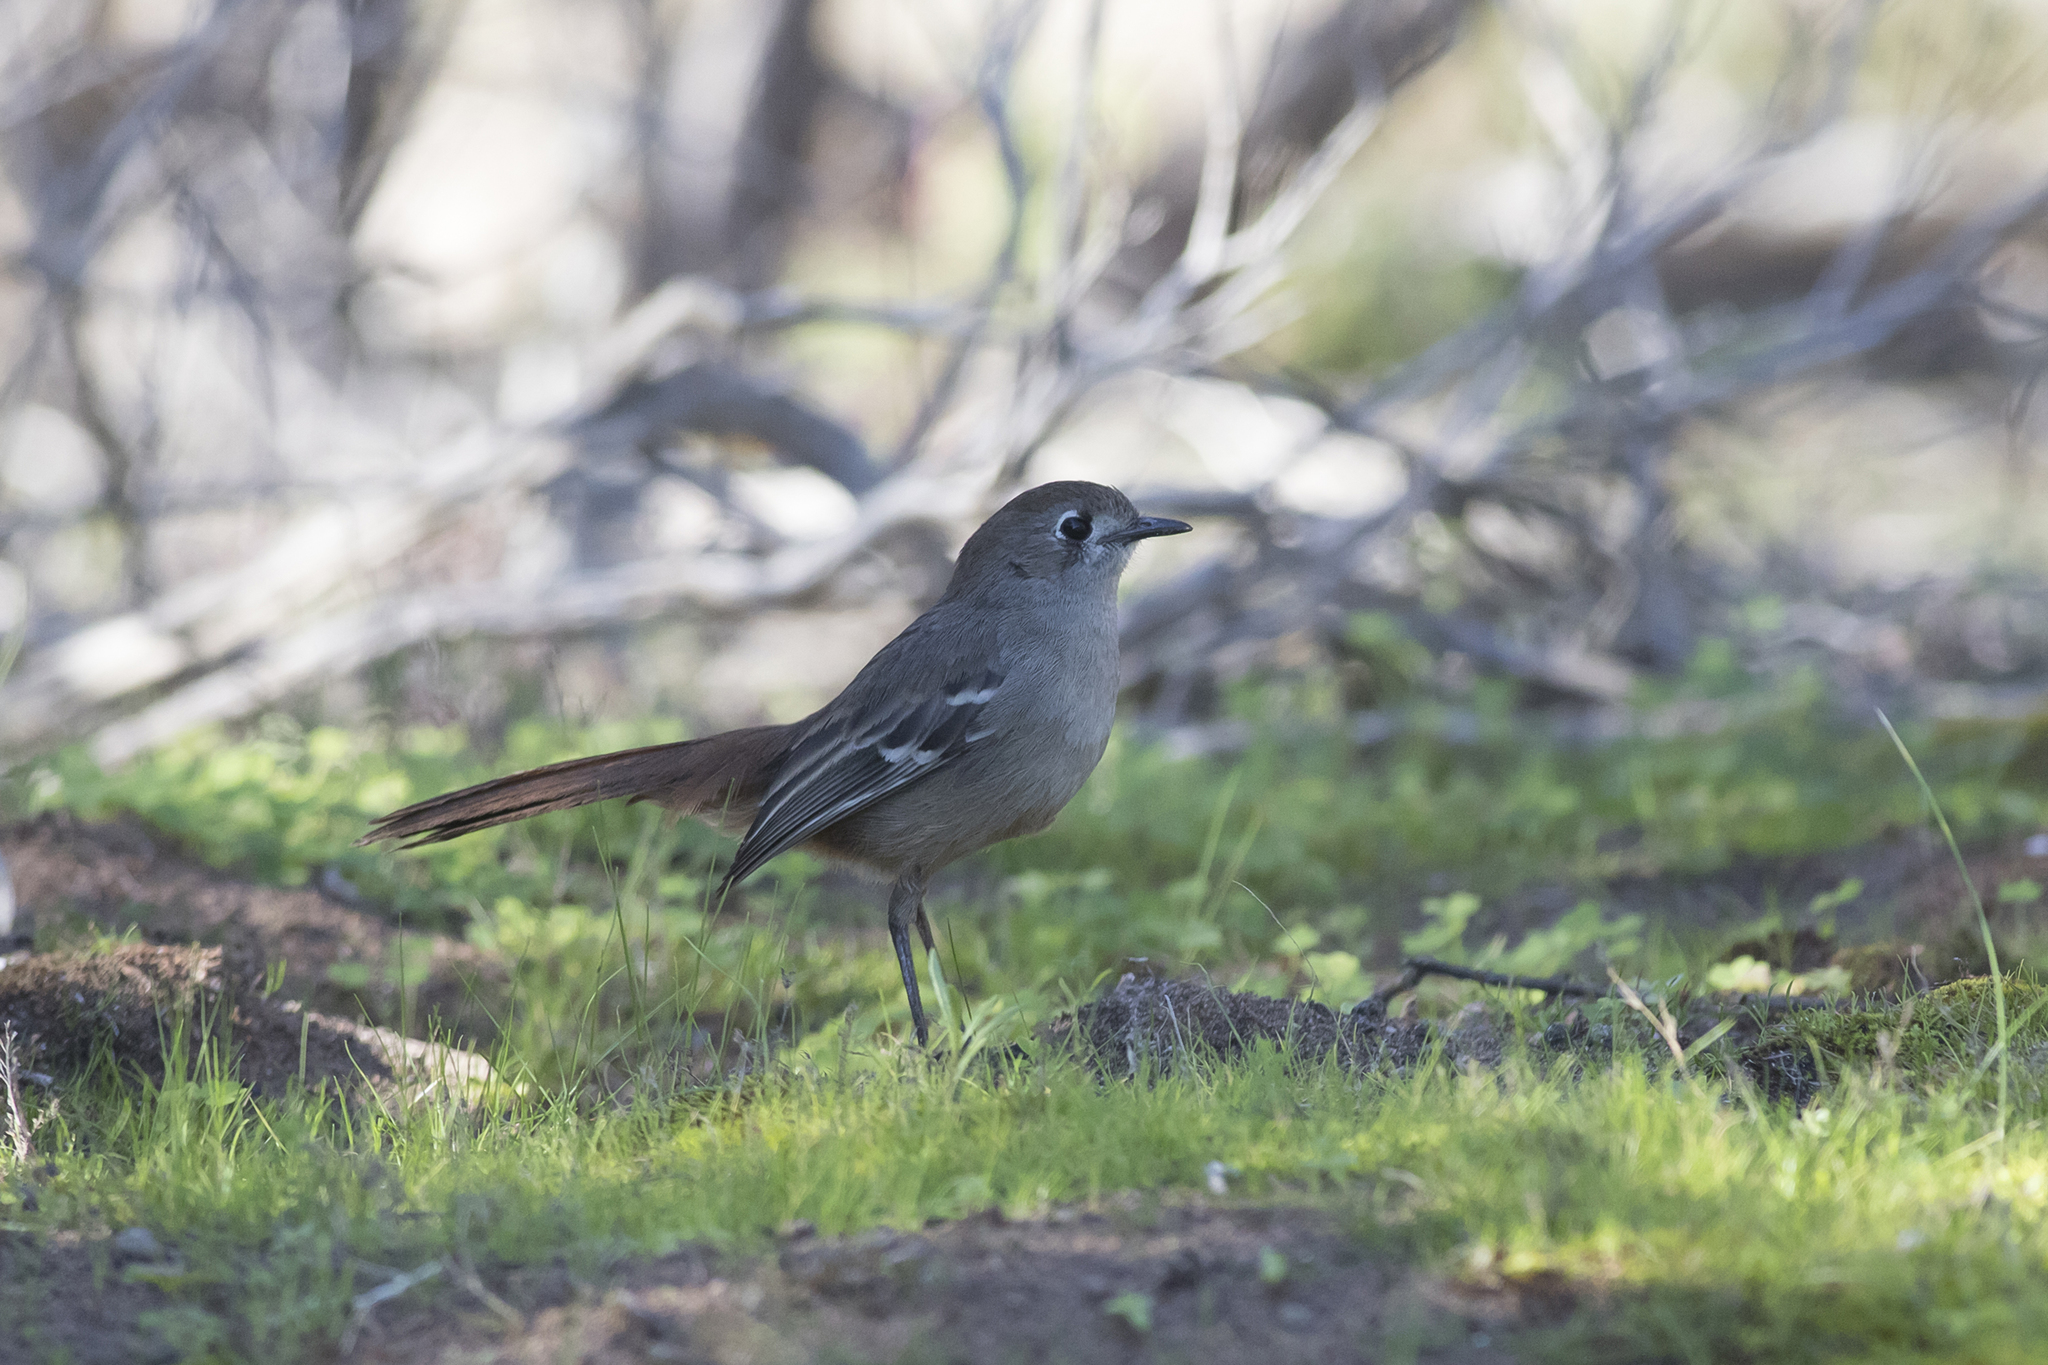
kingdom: Animalia
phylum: Chordata
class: Aves
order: Passeriformes
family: Petroicidae
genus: Drymodes
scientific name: Drymodes brunneopygia
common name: Southern scrub robin
